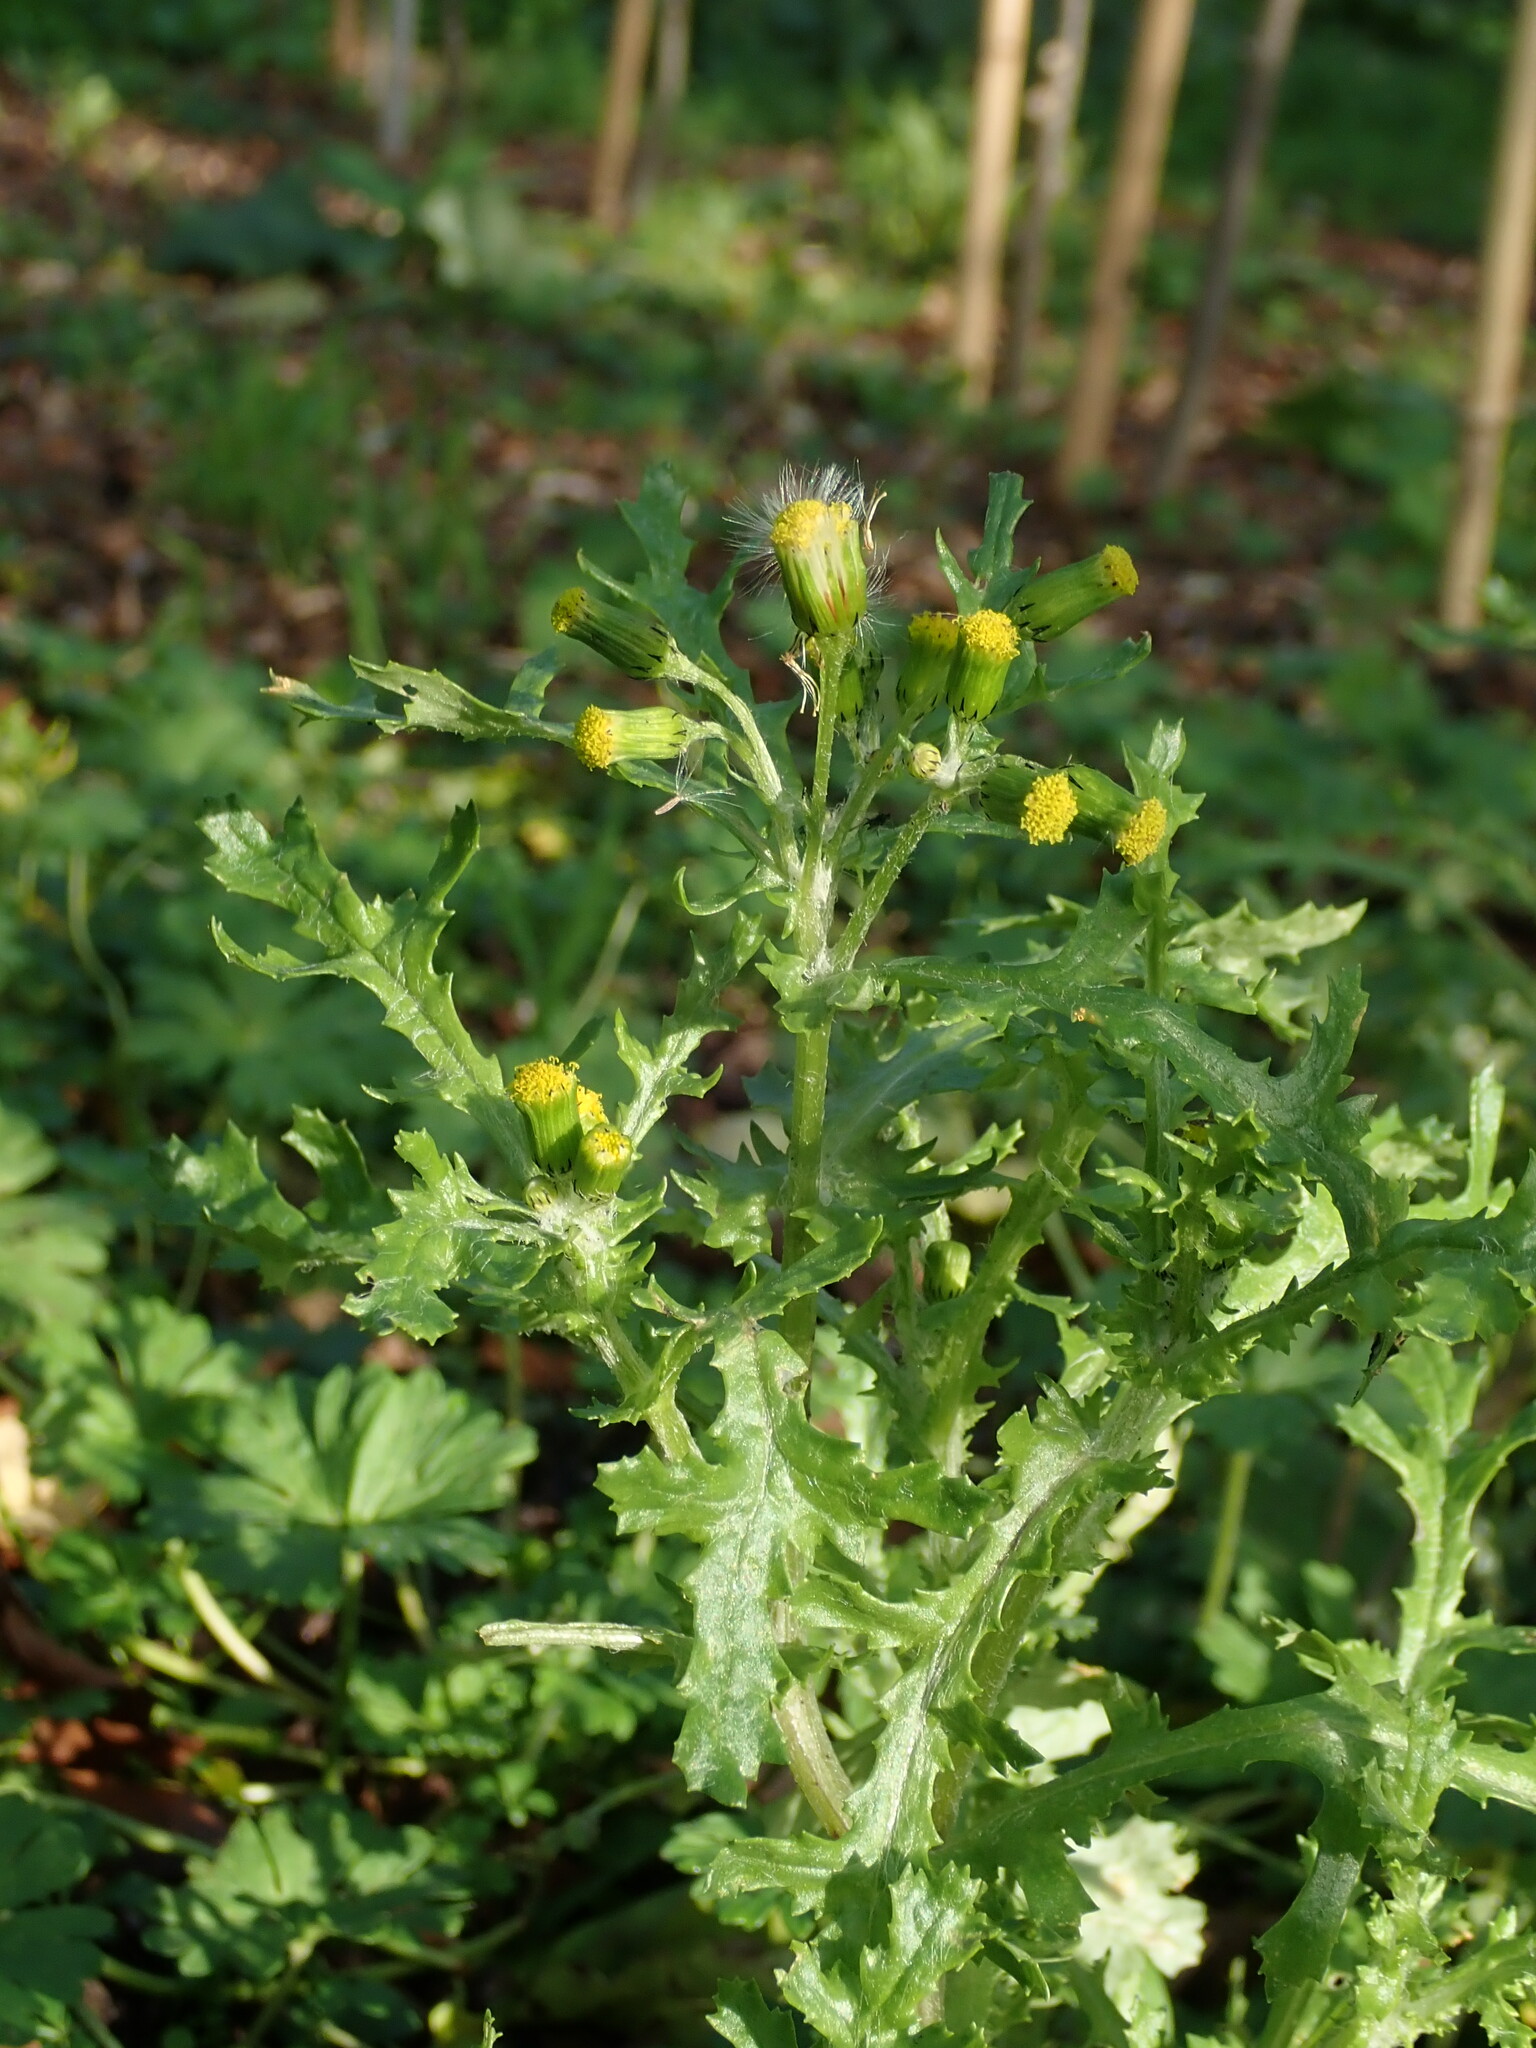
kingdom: Plantae
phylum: Tracheophyta
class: Magnoliopsida
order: Asterales
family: Asteraceae
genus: Senecio
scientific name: Senecio vulgaris
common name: Old-man-in-the-spring
